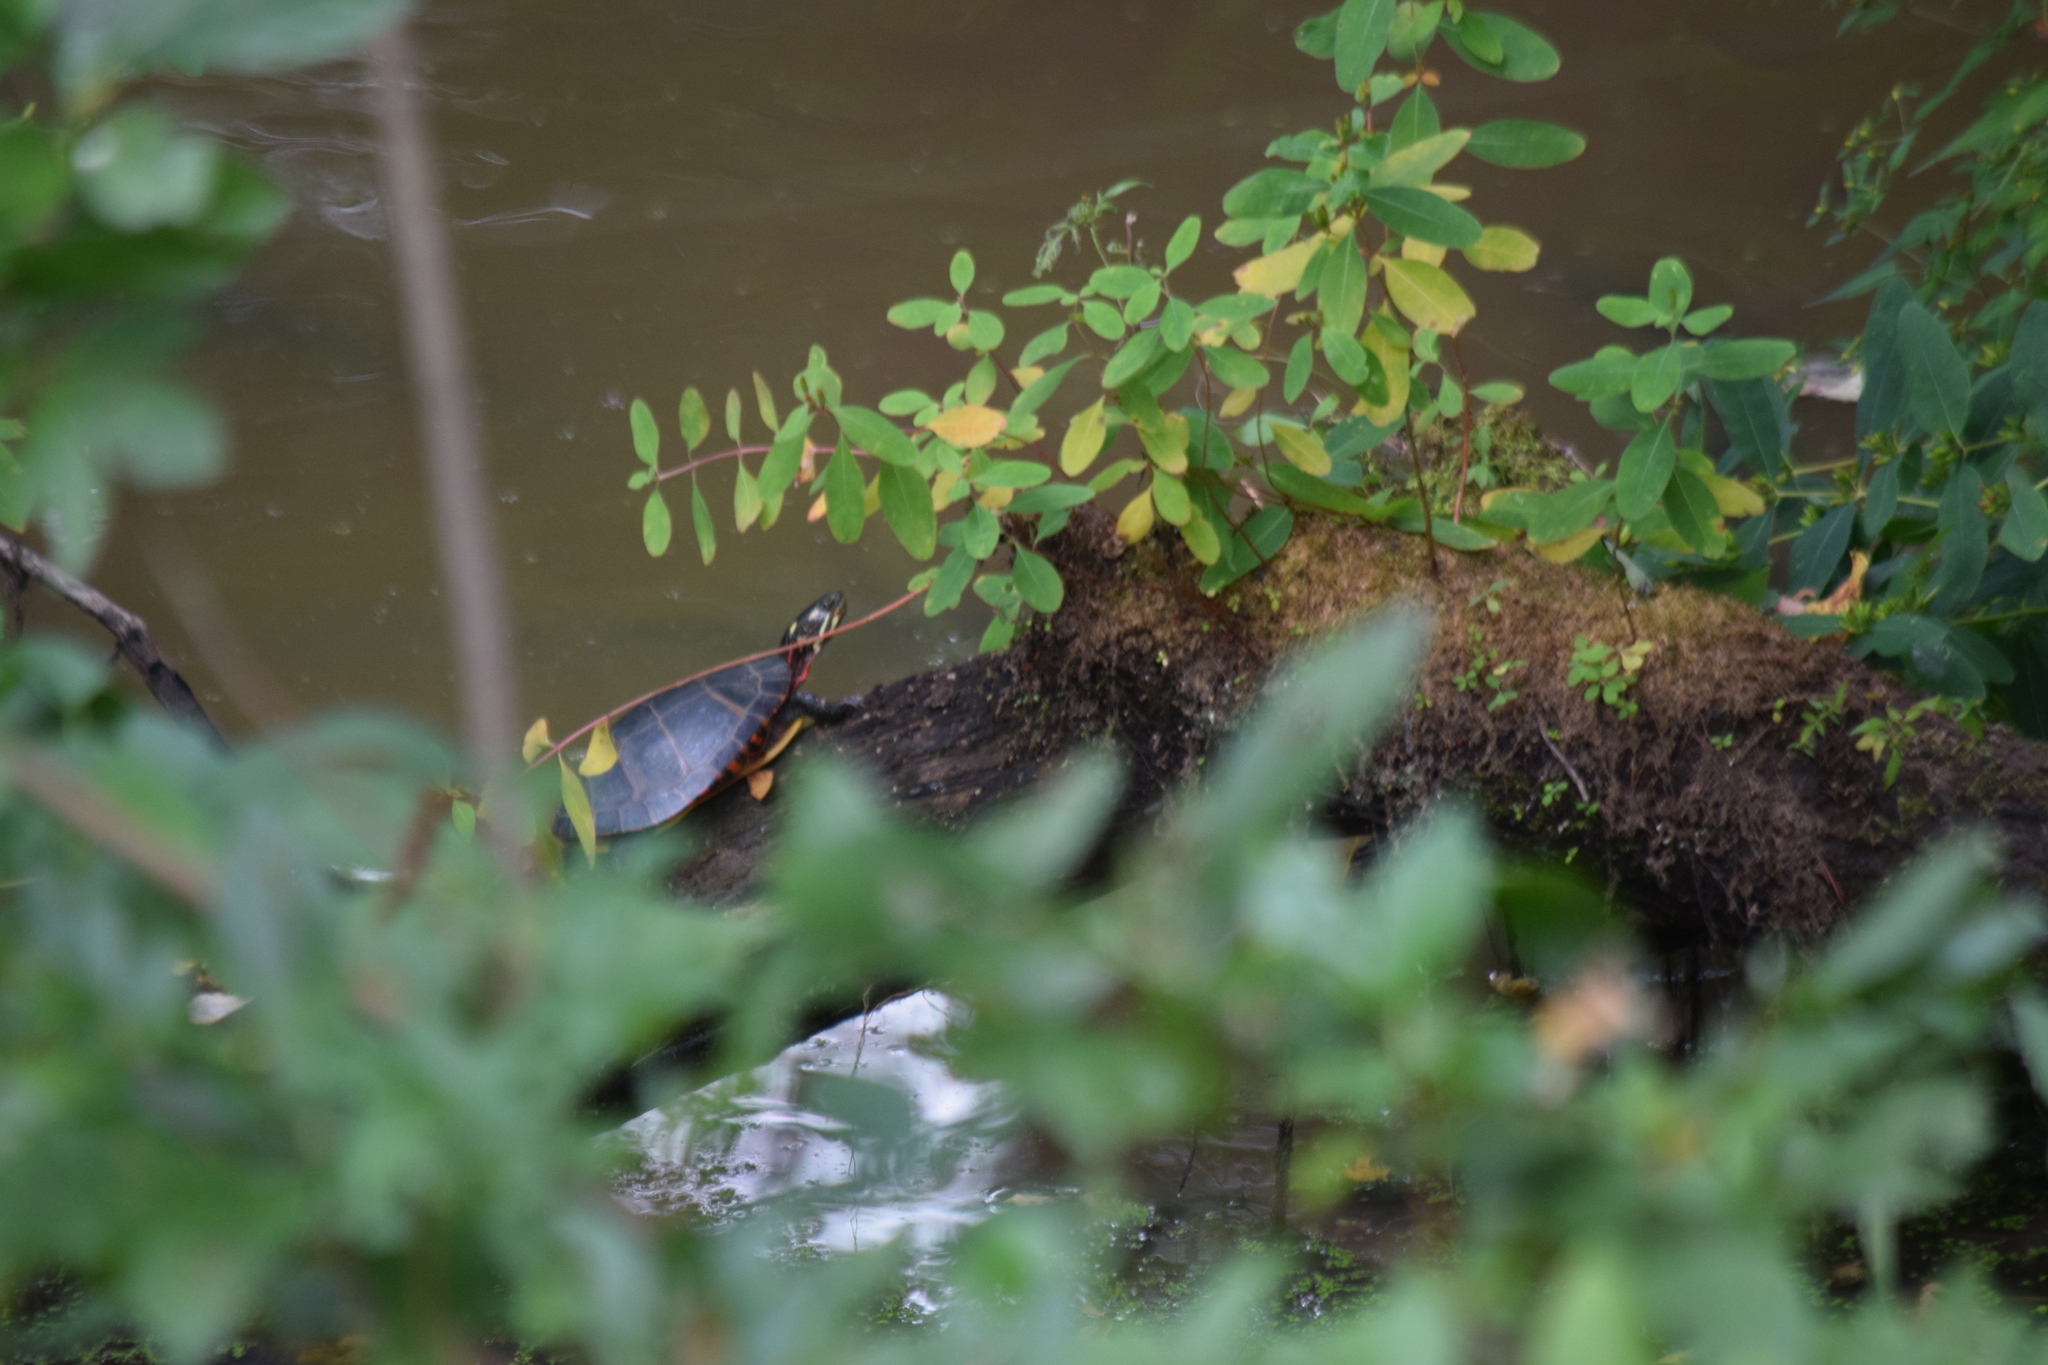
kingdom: Animalia
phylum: Chordata
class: Testudines
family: Emydidae
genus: Chrysemys
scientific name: Chrysemys picta
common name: Painted turtle
